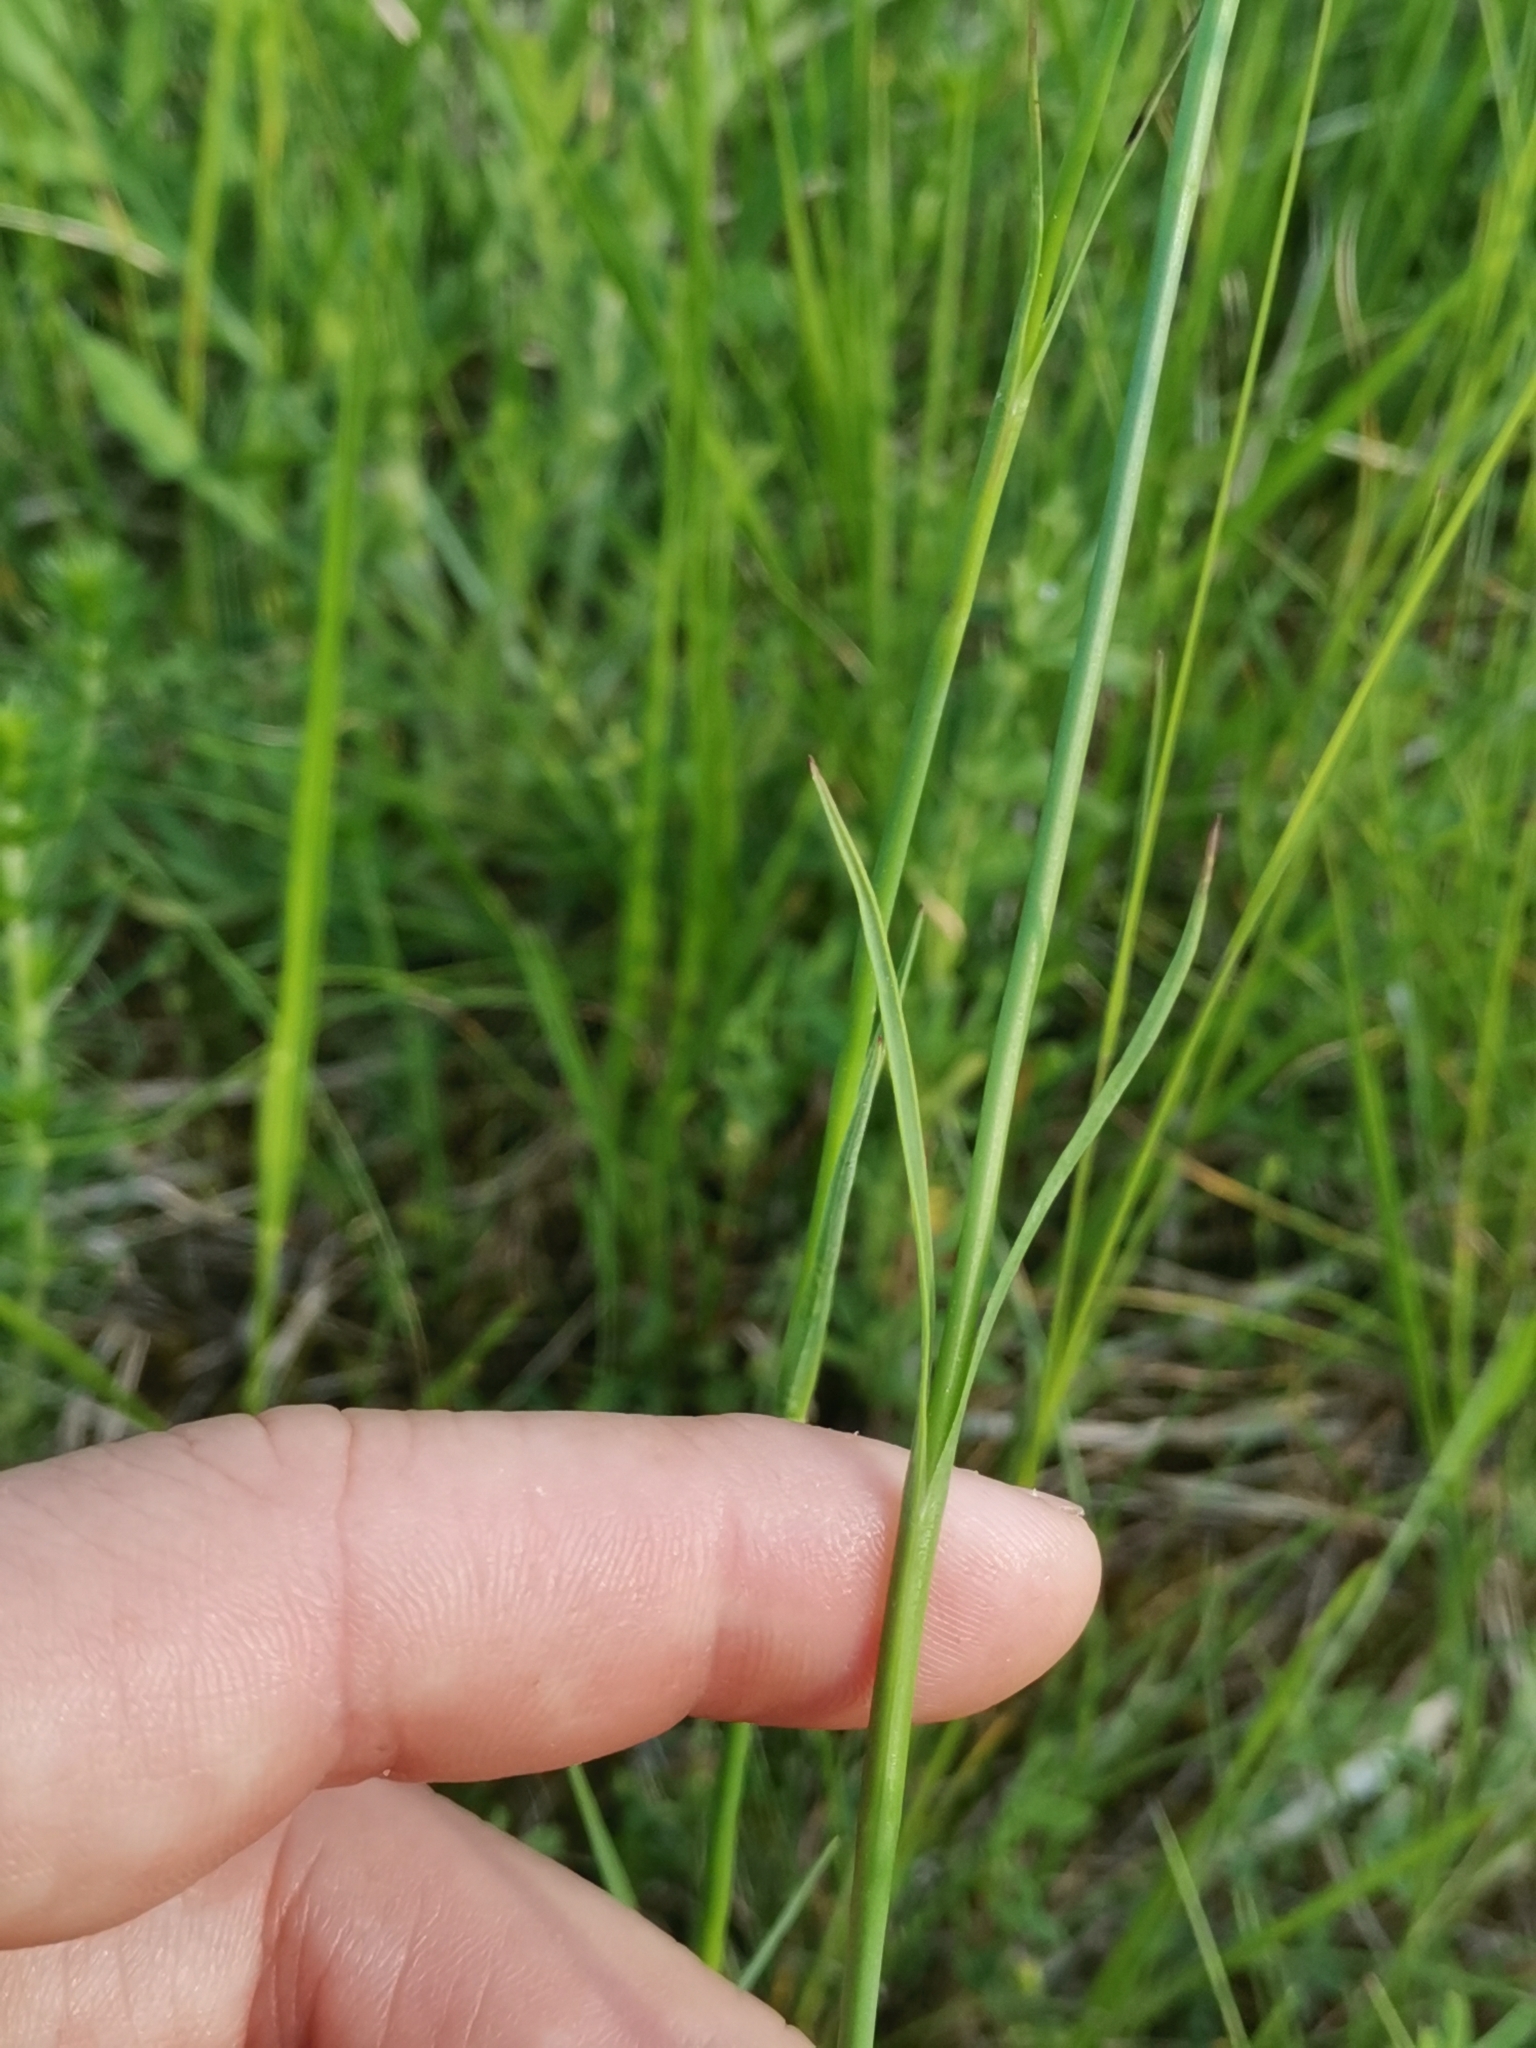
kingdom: Plantae
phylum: Tracheophyta
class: Magnoliopsida
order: Caryophyllales
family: Caryophyllaceae
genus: Dianthus
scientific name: Dianthus carthusianorum
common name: Carthusian pink
